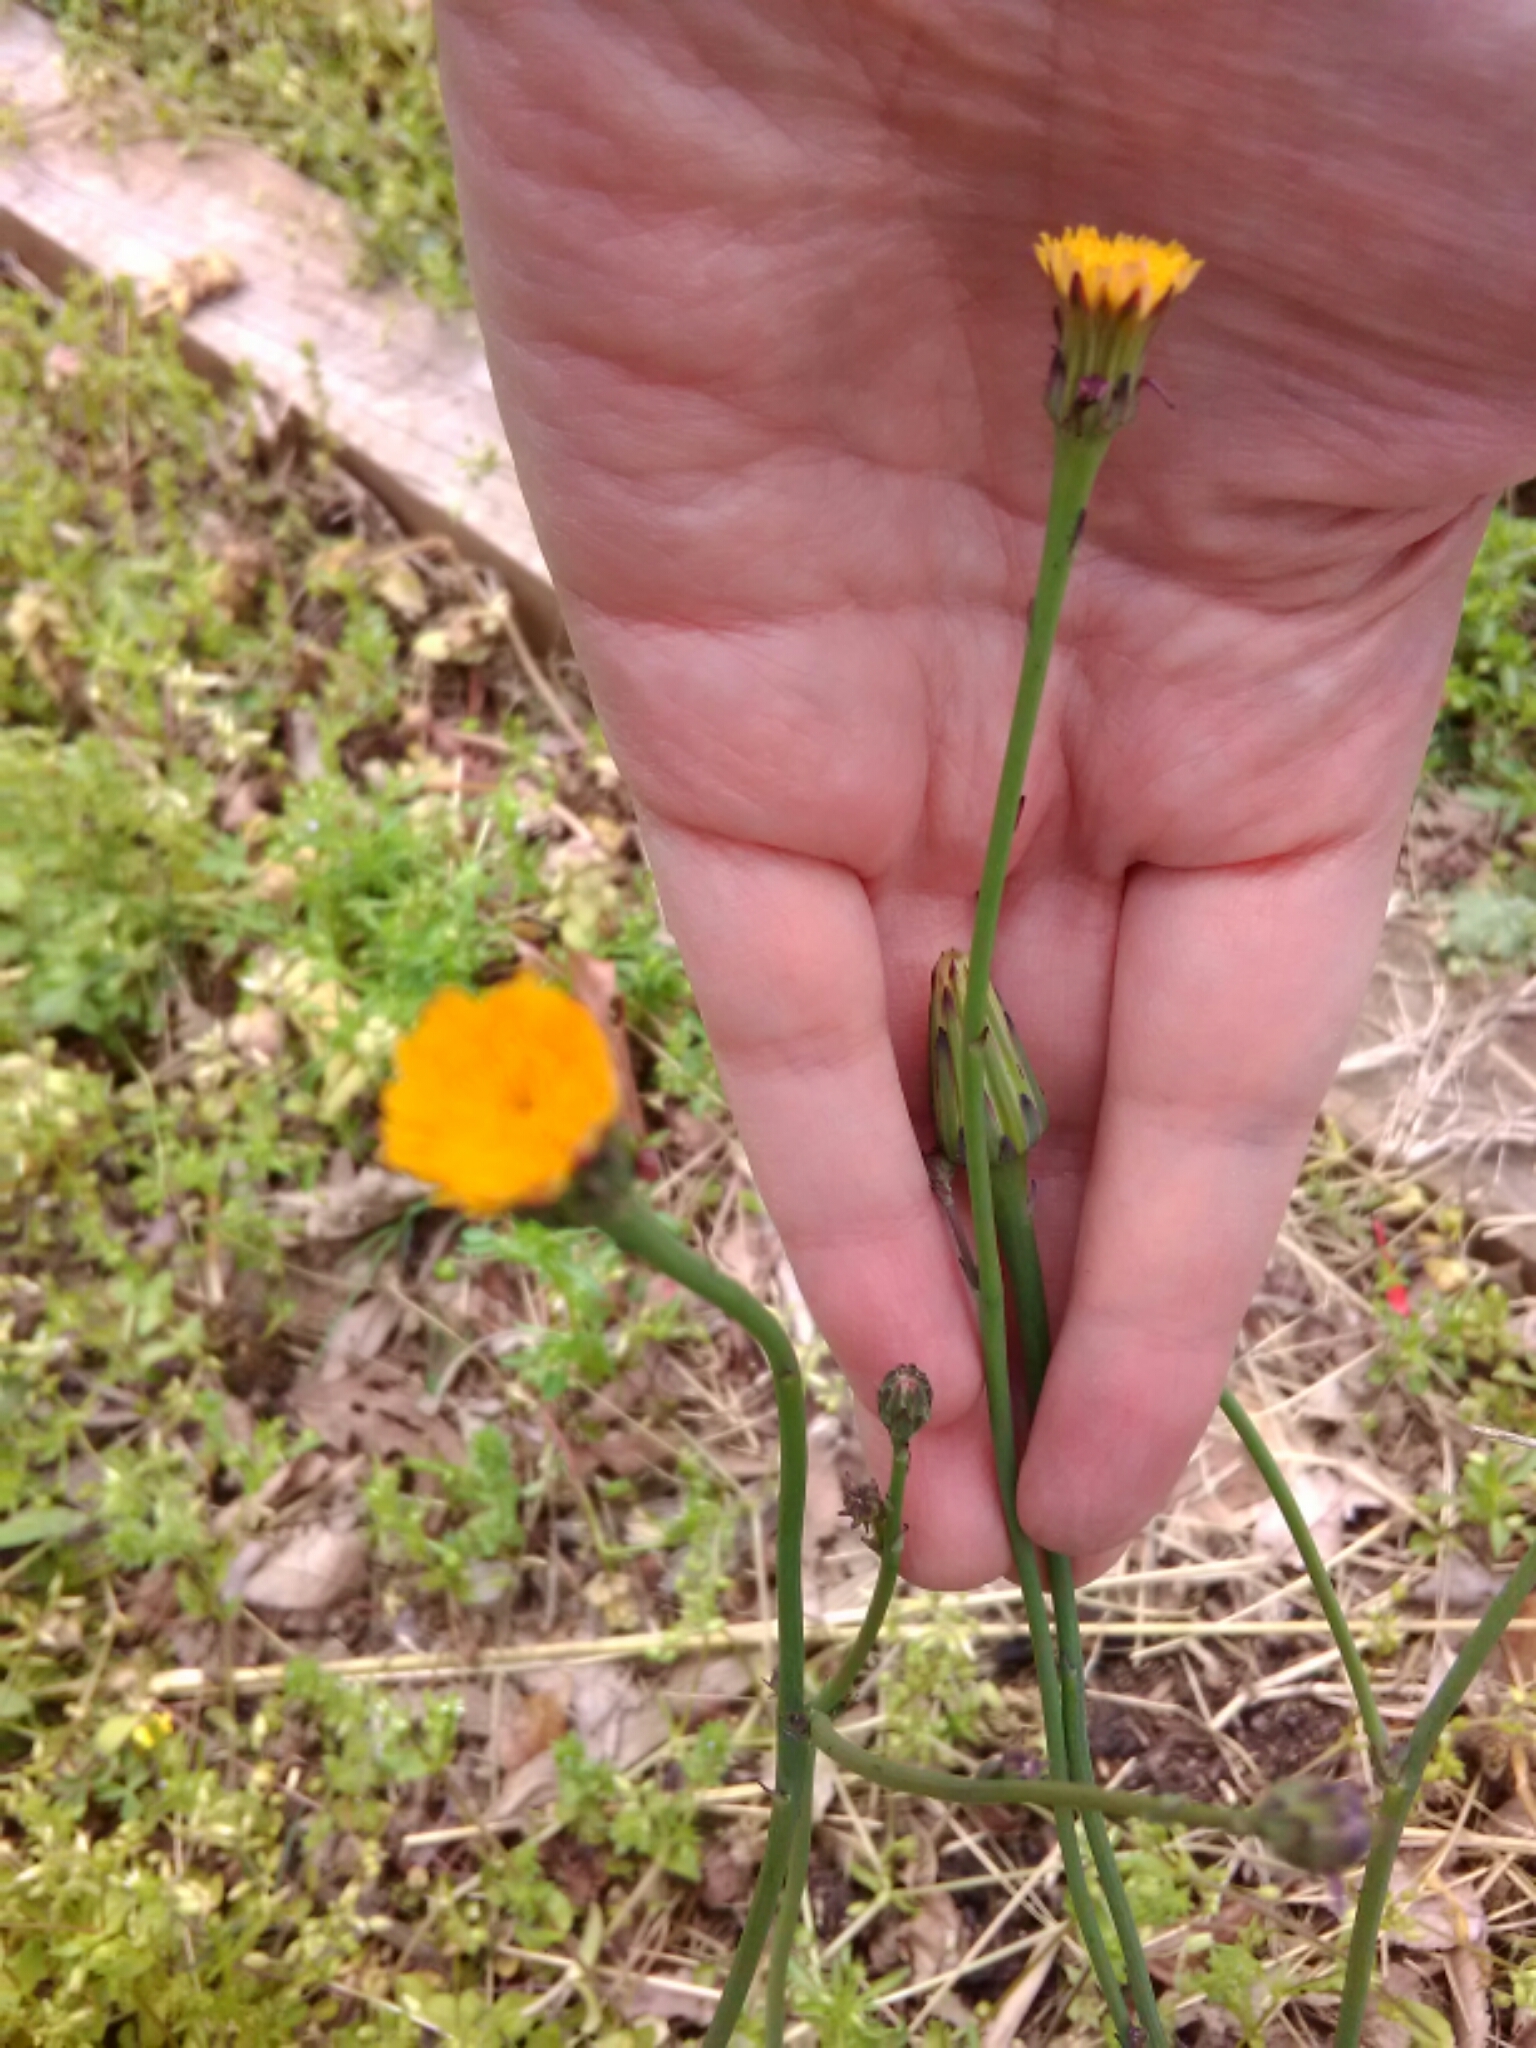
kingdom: Plantae
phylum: Tracheophyta
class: Magnoliopsida
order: Asterales
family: Asteraceae
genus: Hypochaeris
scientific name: Hypochaeris glabra
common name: Smooth catsear
